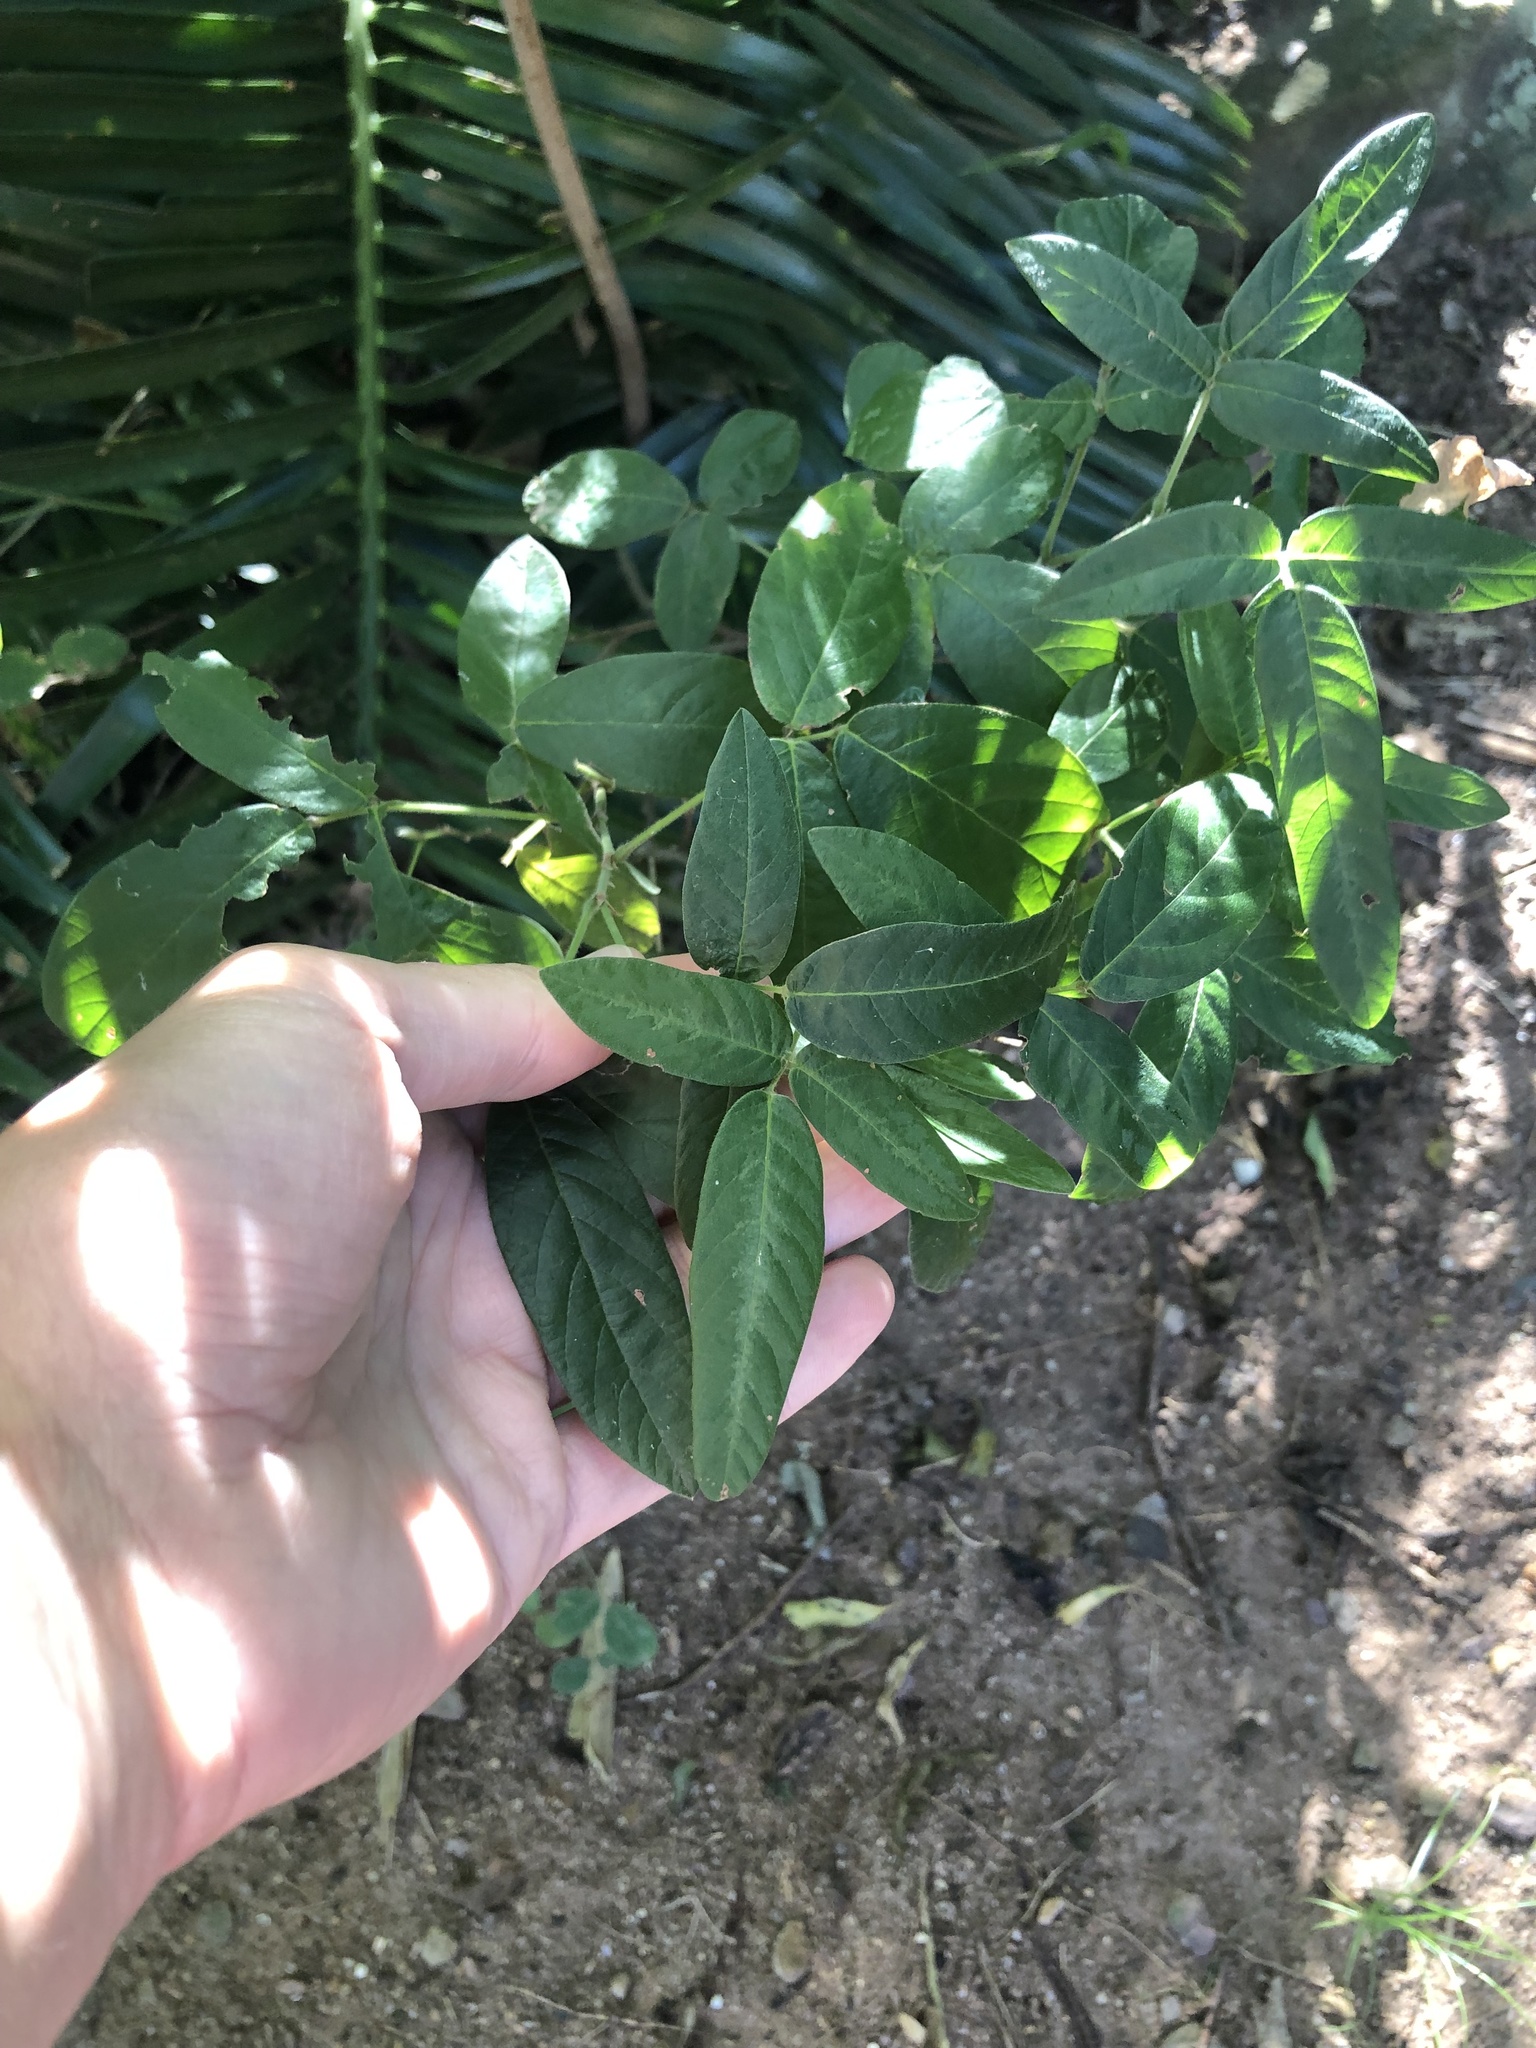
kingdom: Plantae
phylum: Tracheophyta
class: Magnoliopsida
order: Fabales
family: Fabaceae
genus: Desmodium
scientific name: Desmodium incanum
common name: Tickclover
